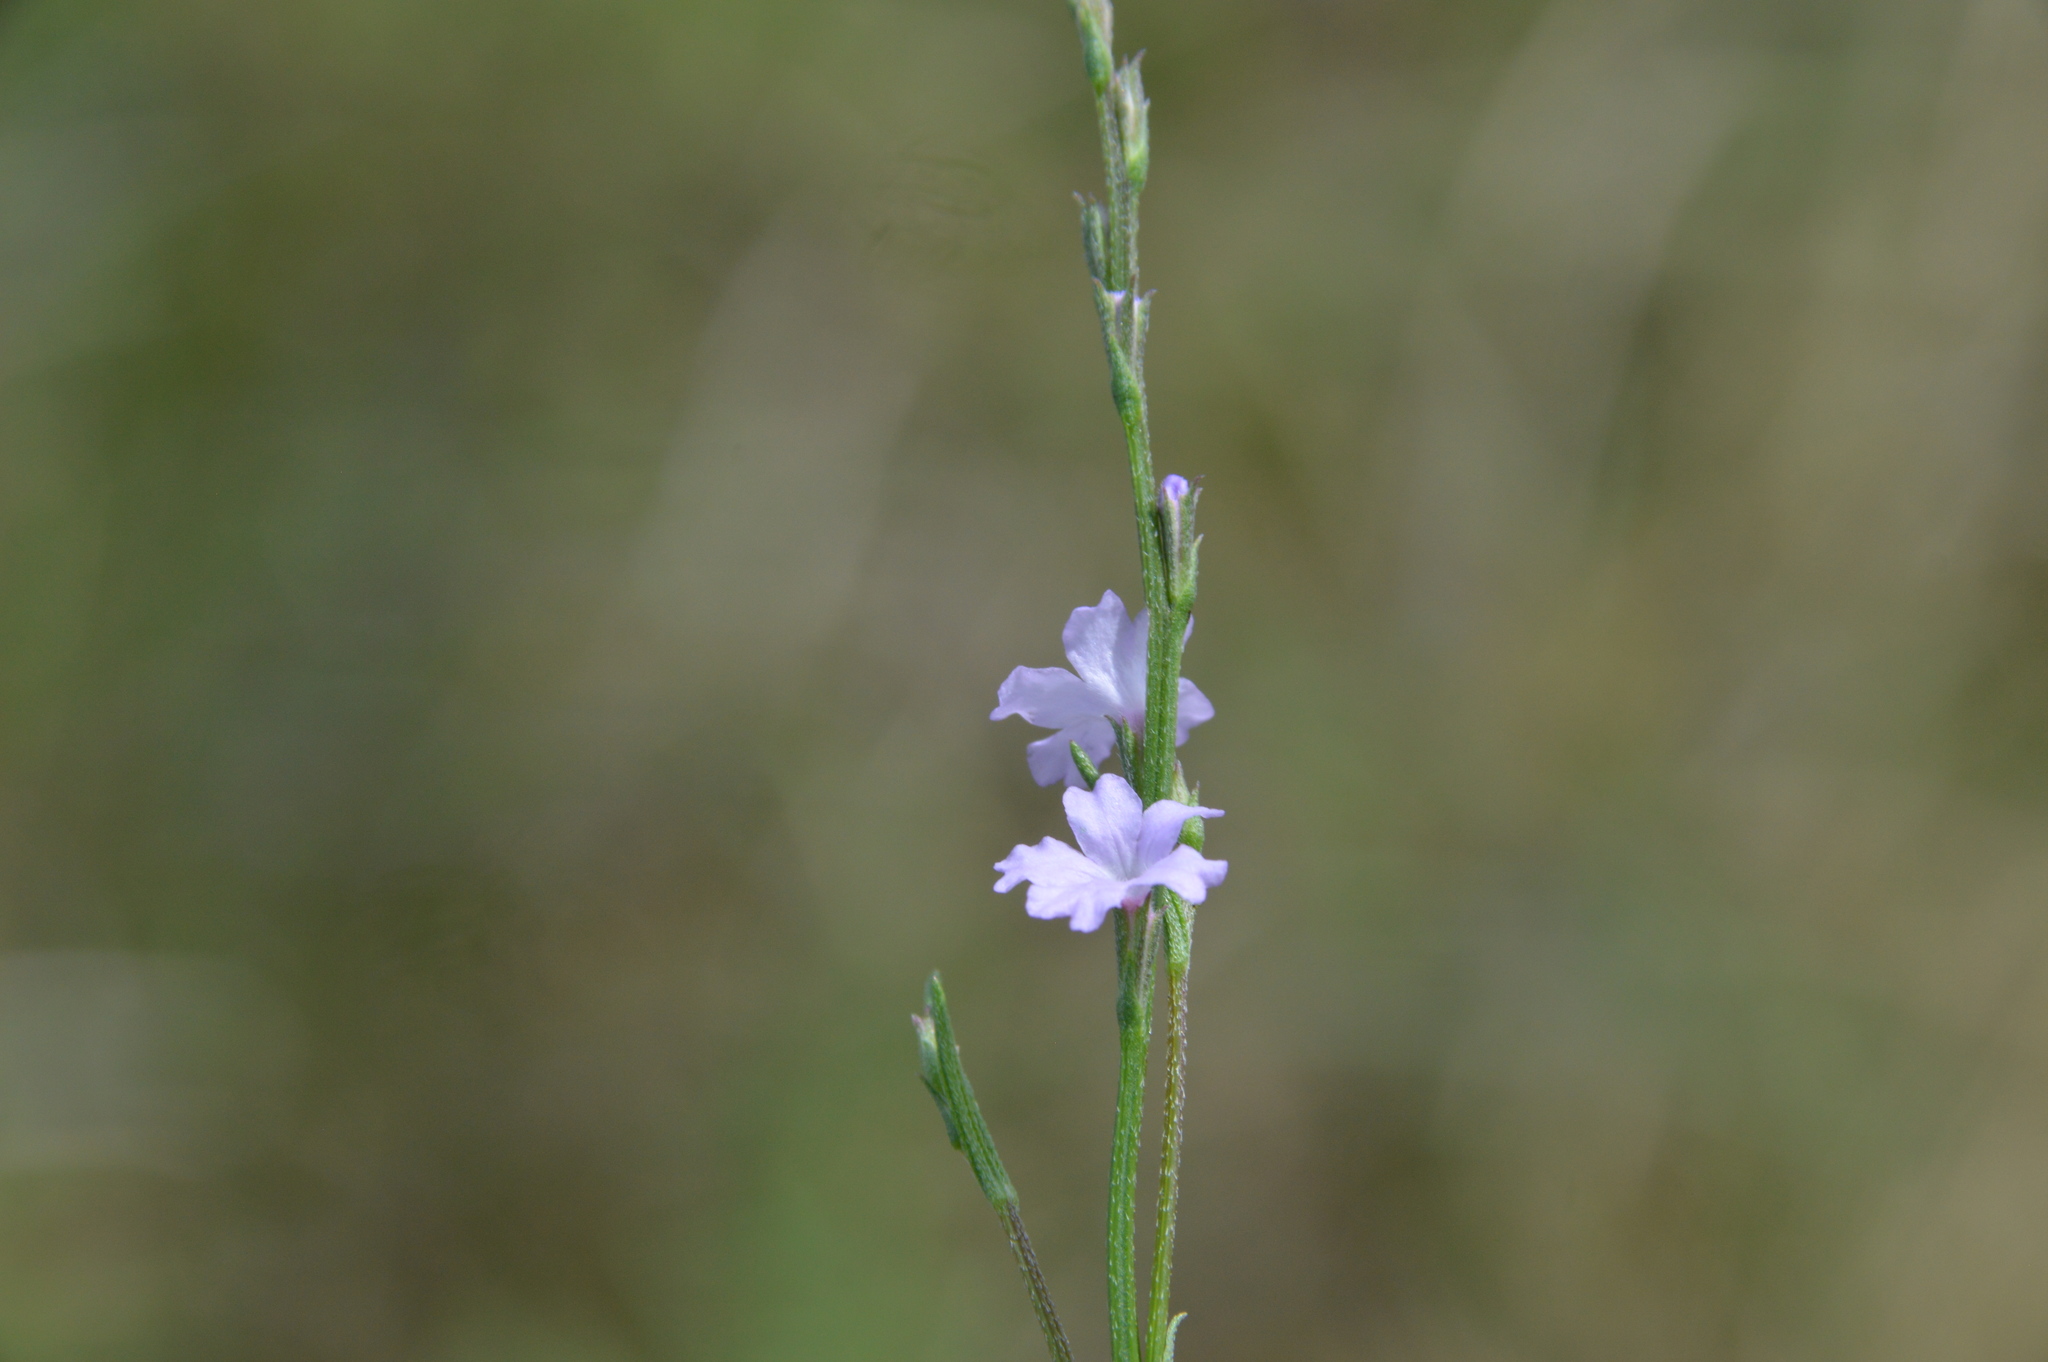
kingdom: Plantae
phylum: Tracheophyta
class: Magnoliopsida
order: Lamiales
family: Verbenaceae
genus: Verbena
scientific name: Verbena halei
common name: Texas vervain
